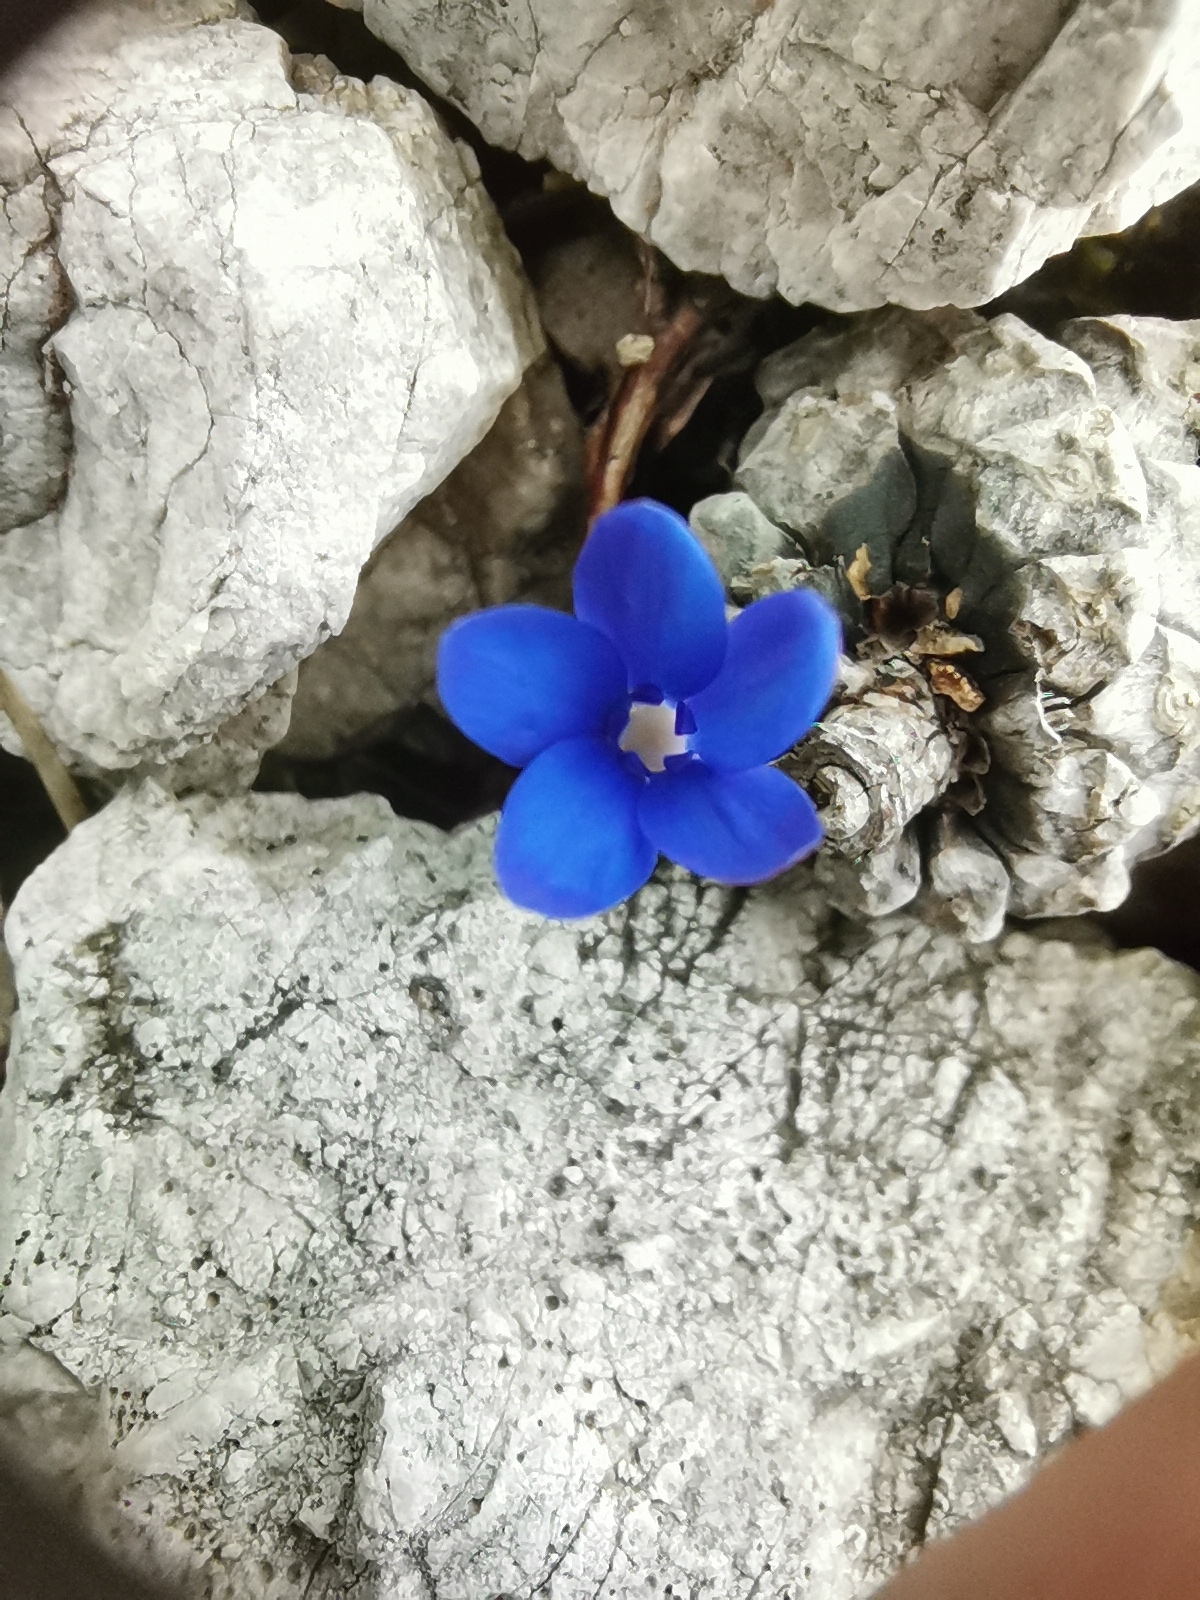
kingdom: Plantae
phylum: Tracheophyta
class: Magnoliopsida
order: Gentianales
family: Gentianaceae
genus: Gentiana
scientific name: Gentiana utriculosa
